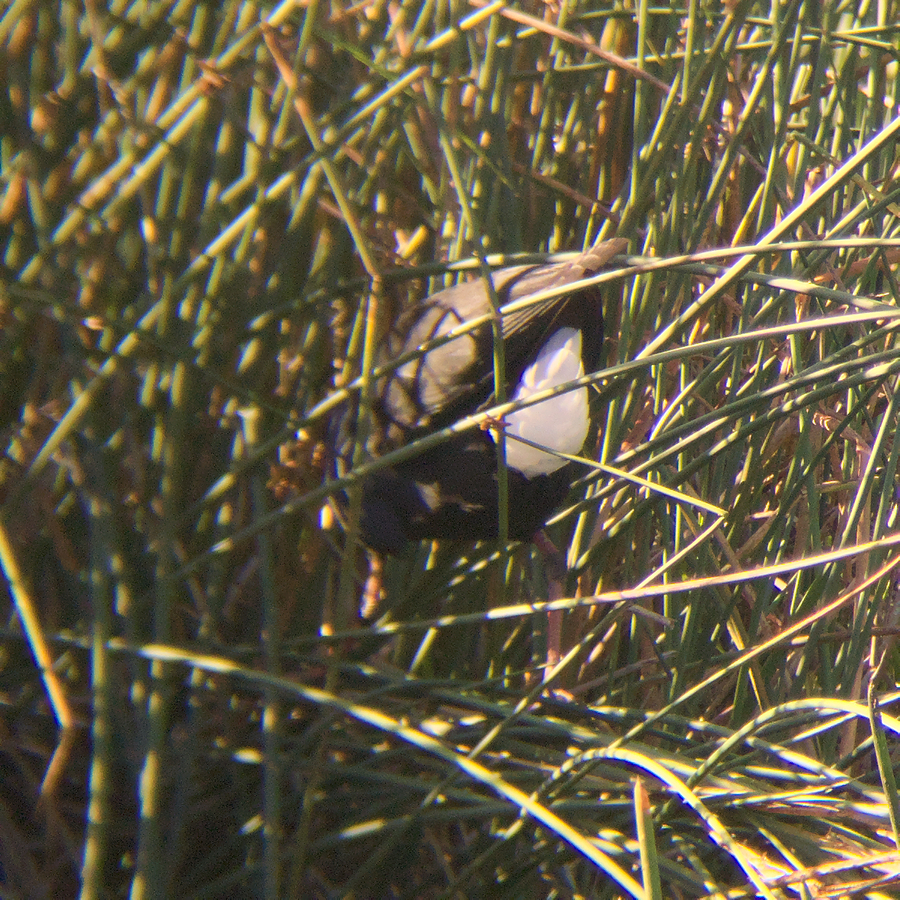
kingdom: Animalia
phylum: Chordata
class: Aves
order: Gruiformes
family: Rallidae
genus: Porphyrio
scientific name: Porphyrio melanotus
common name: Australasian swamphen
